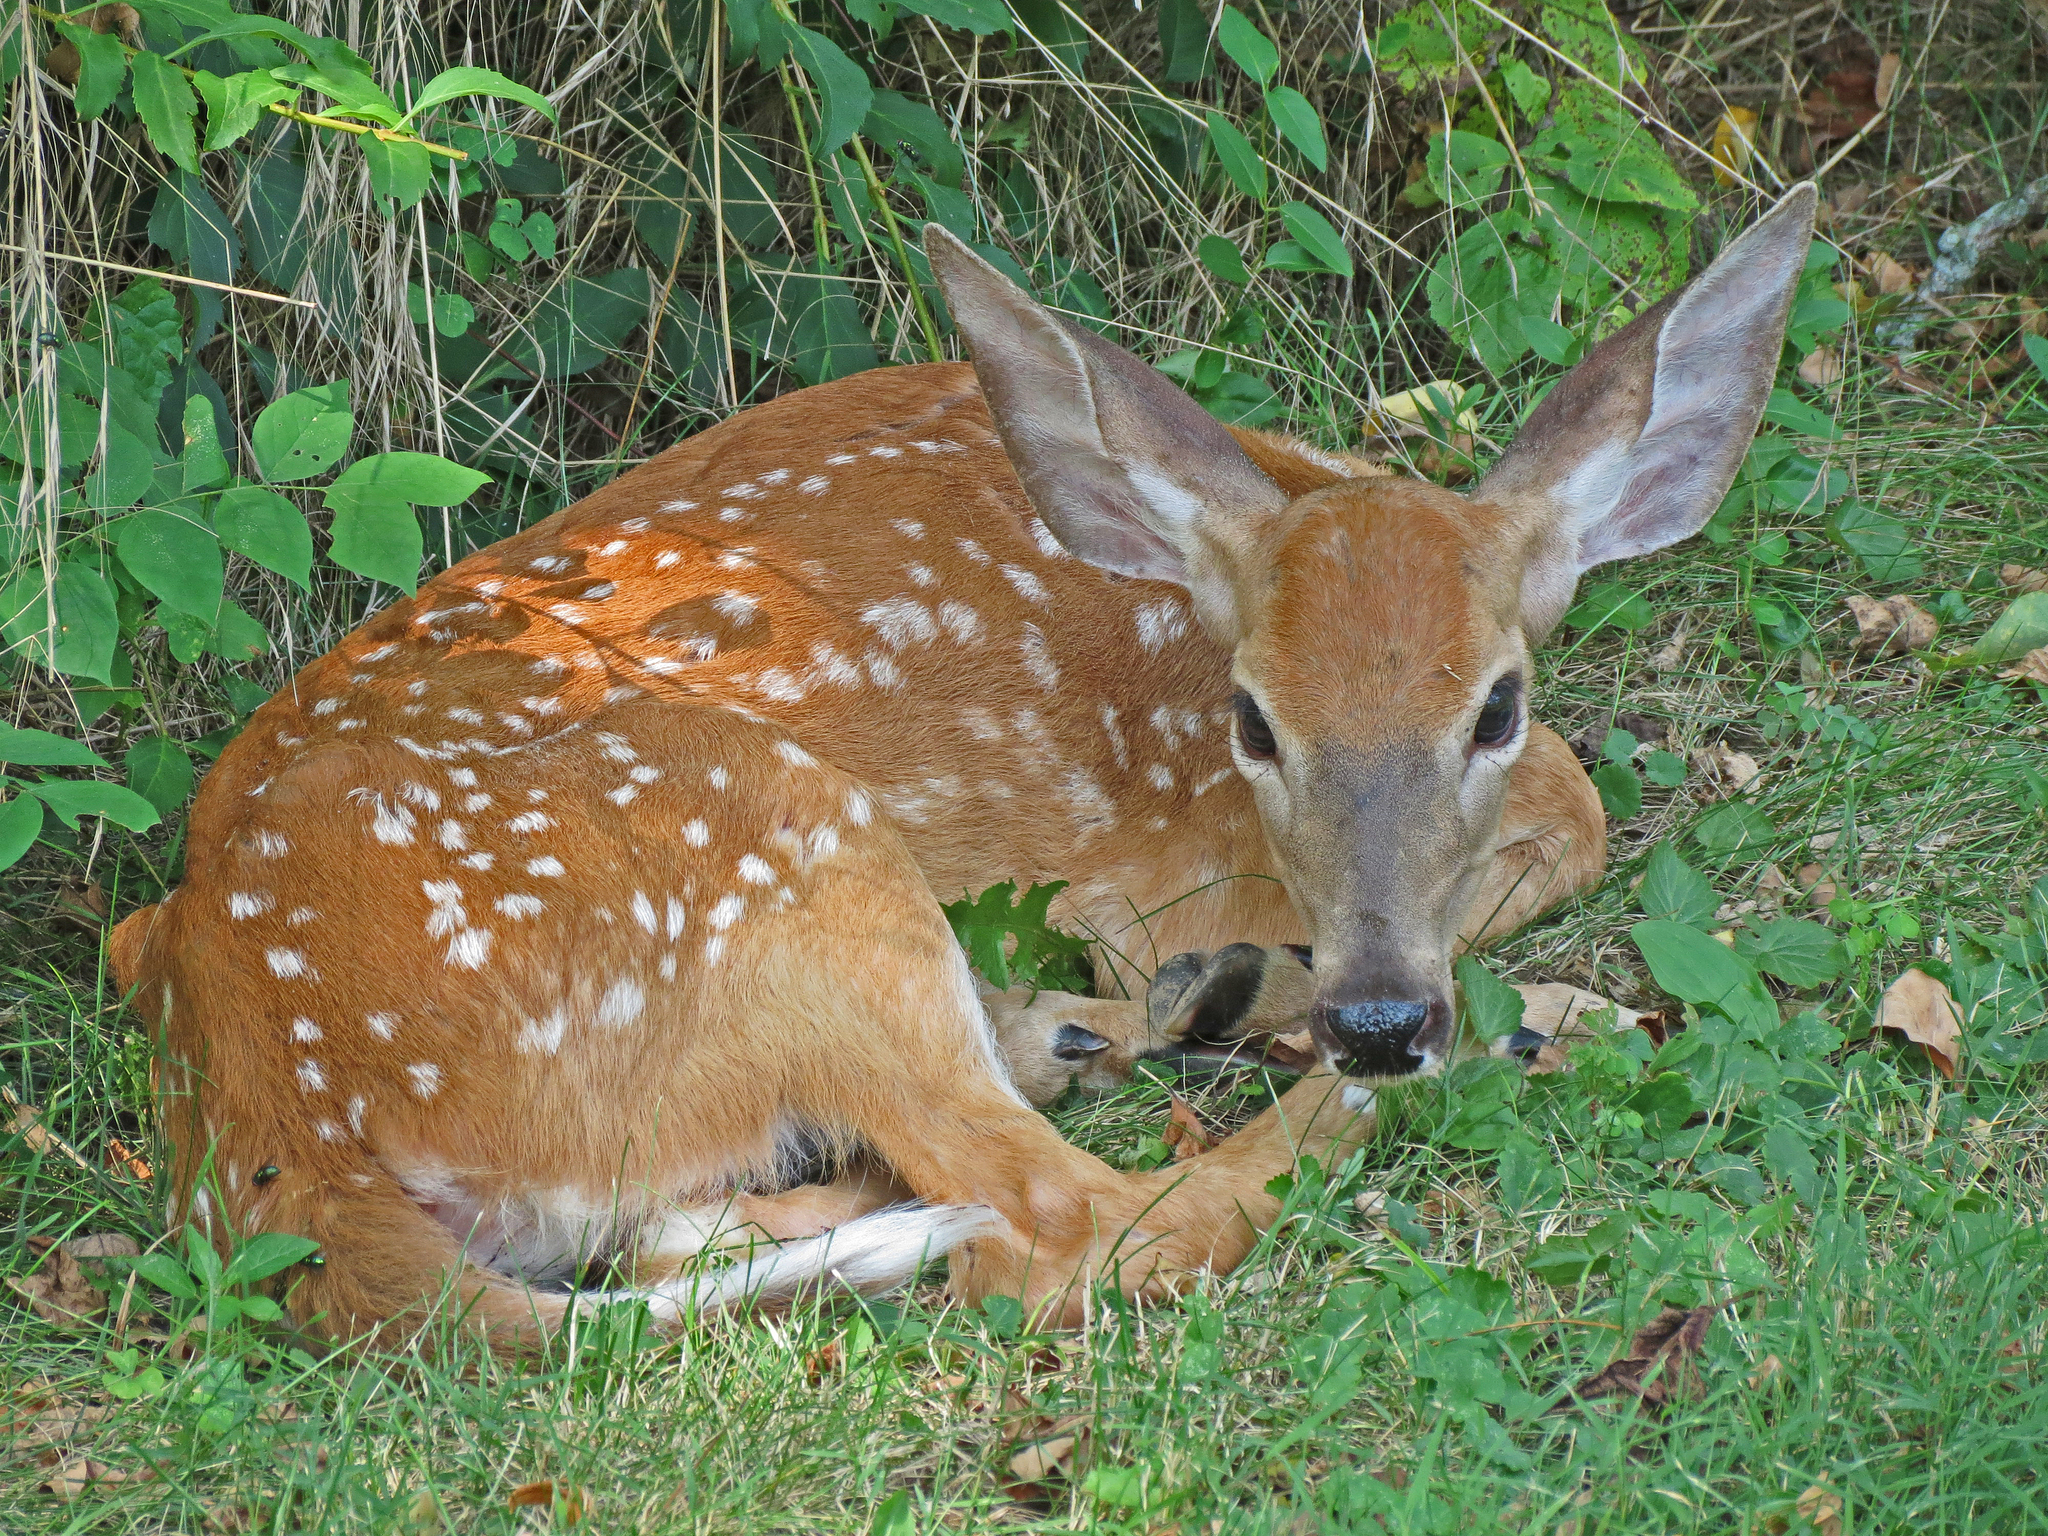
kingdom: Animalia
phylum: Chordata
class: Mammalia
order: Artiodactyla
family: Cervidae
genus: Odocoileus
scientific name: Odocoileus virginianus
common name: White-tailed deer
